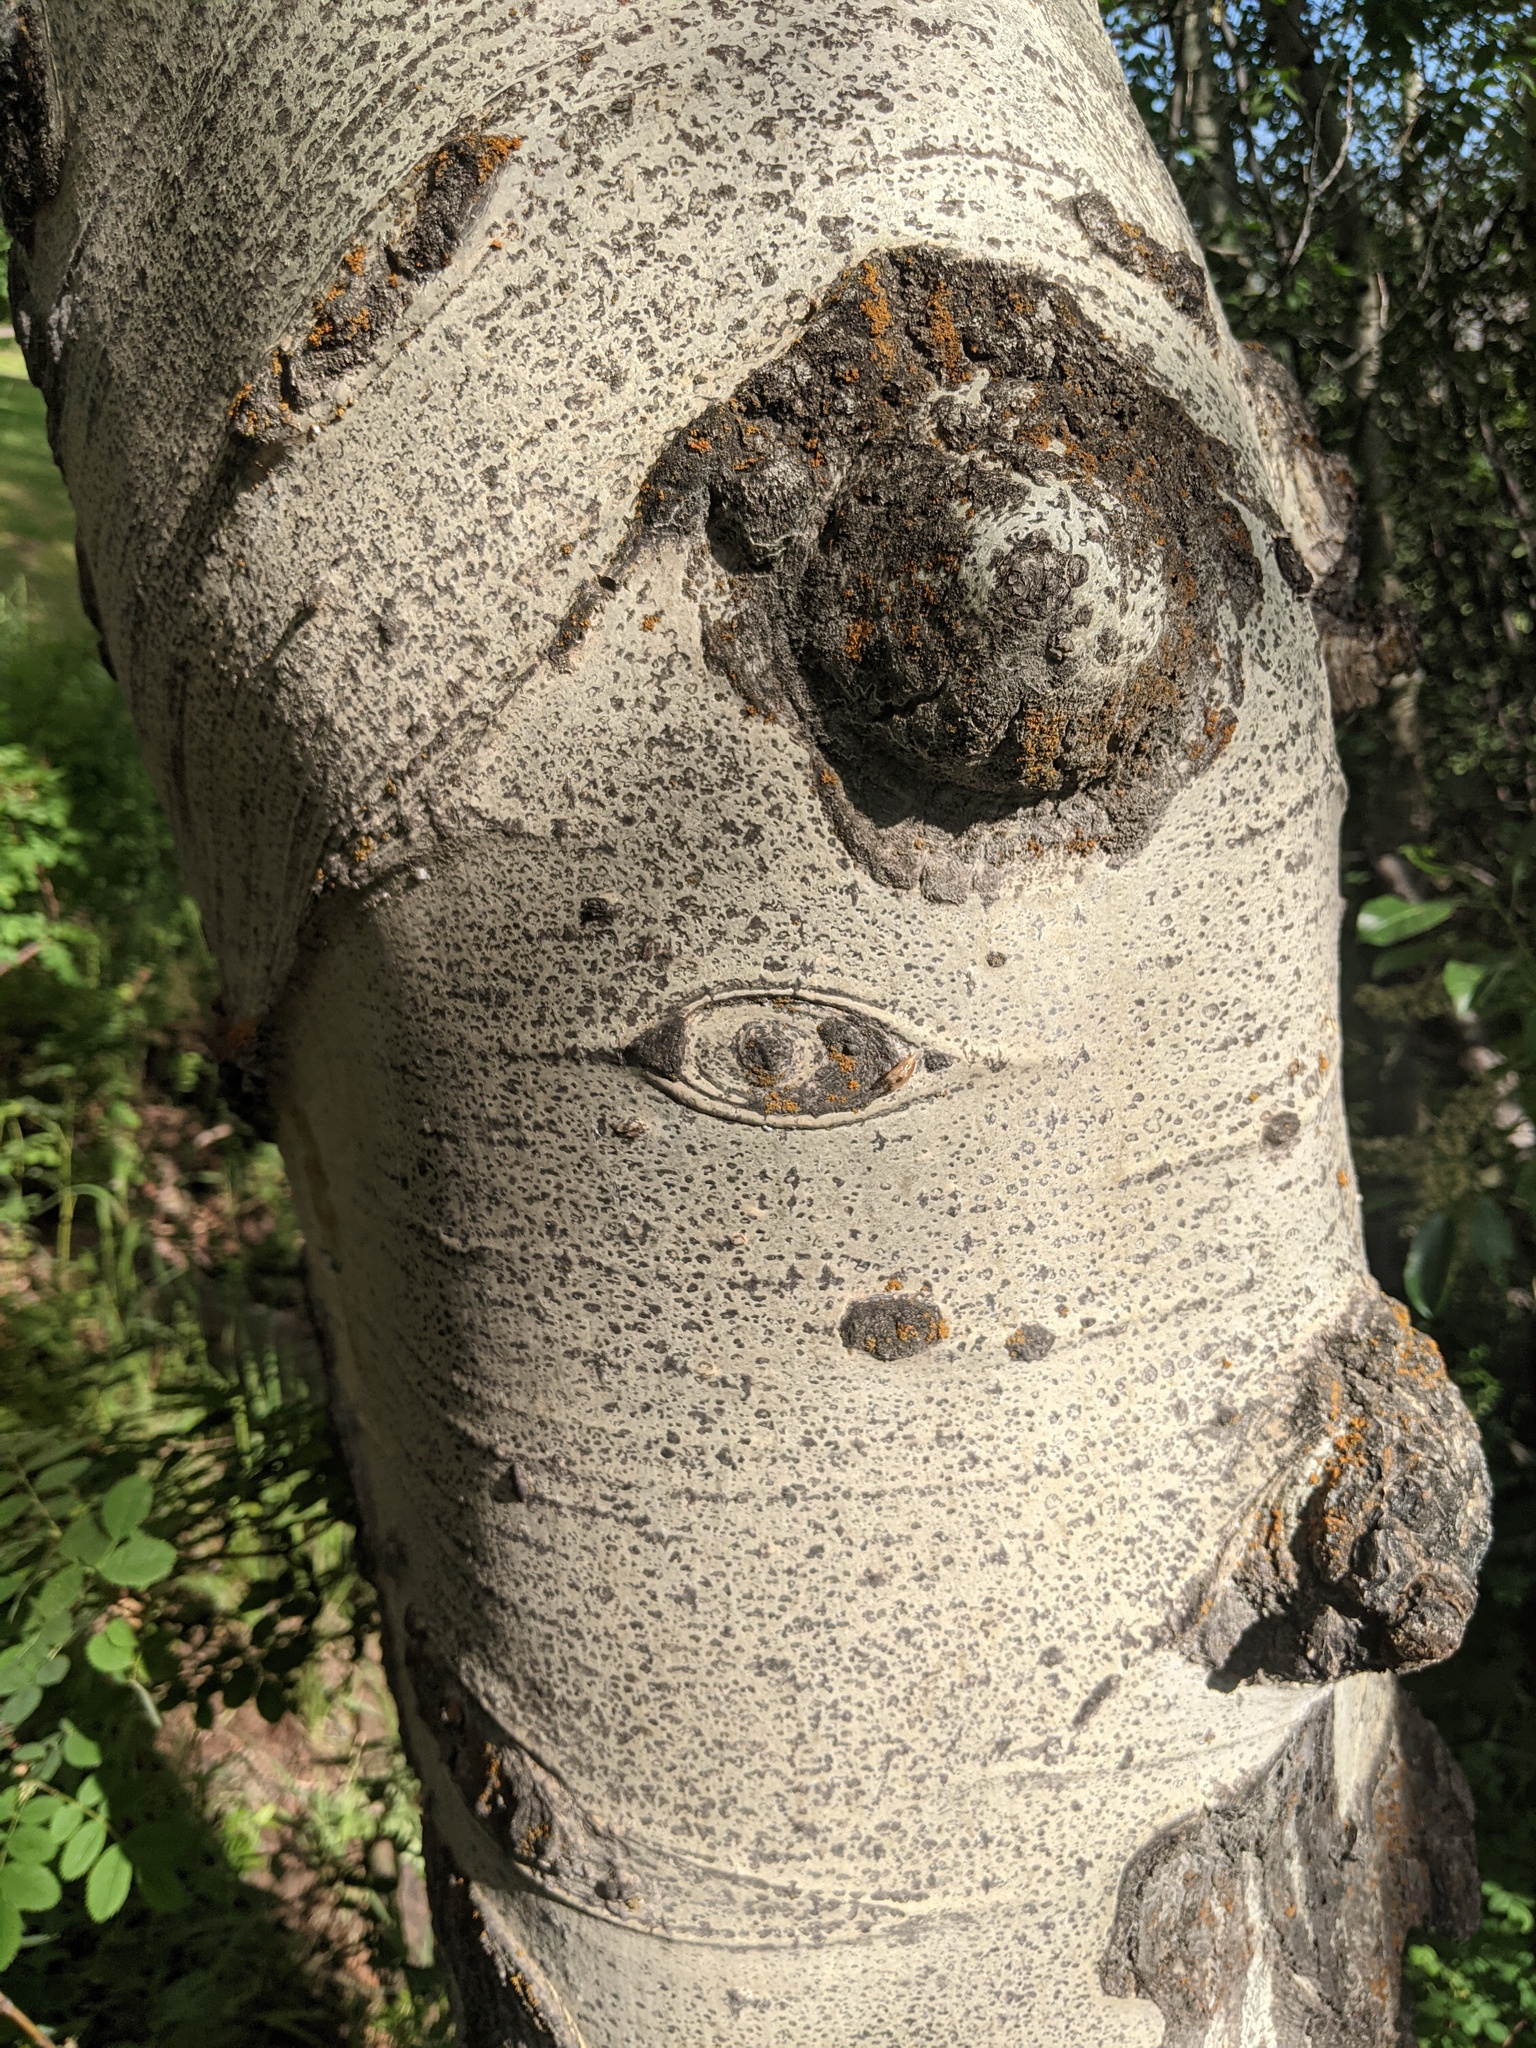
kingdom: Plantae
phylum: Tracheophyta
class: Magnoliopsida
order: Malpighiales
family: Salicaceae
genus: Populus
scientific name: Populus tremuloides
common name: Quaking aspen
